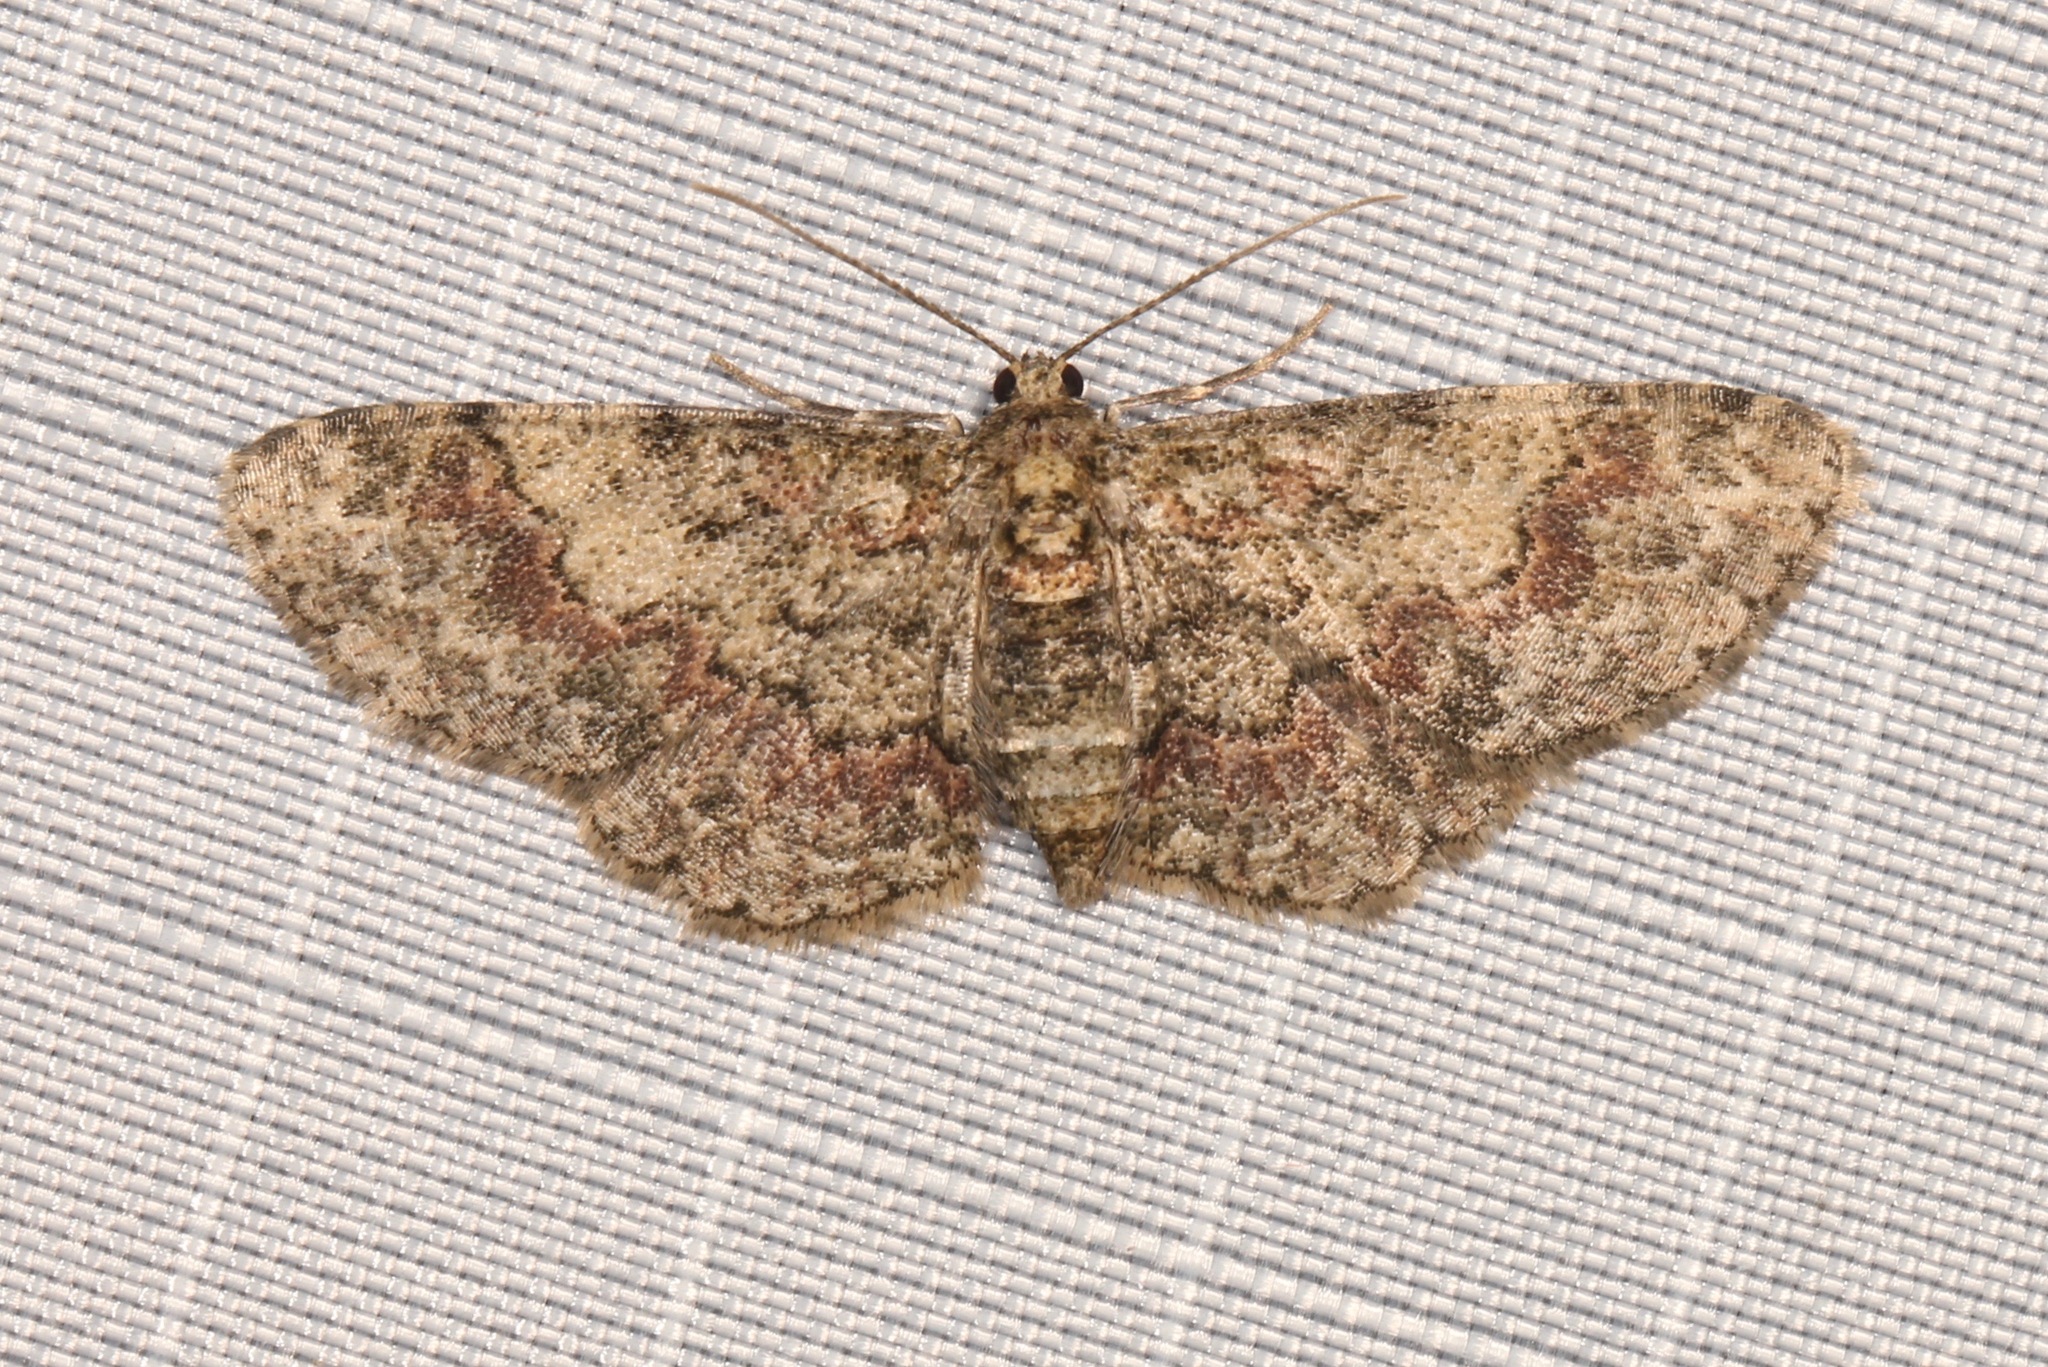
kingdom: Animalia
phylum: Arthropoda
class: Insecta
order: Lepidoptera
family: Geometridae
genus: Glenoides
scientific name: Glenoides texanaria
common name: Texas gray
